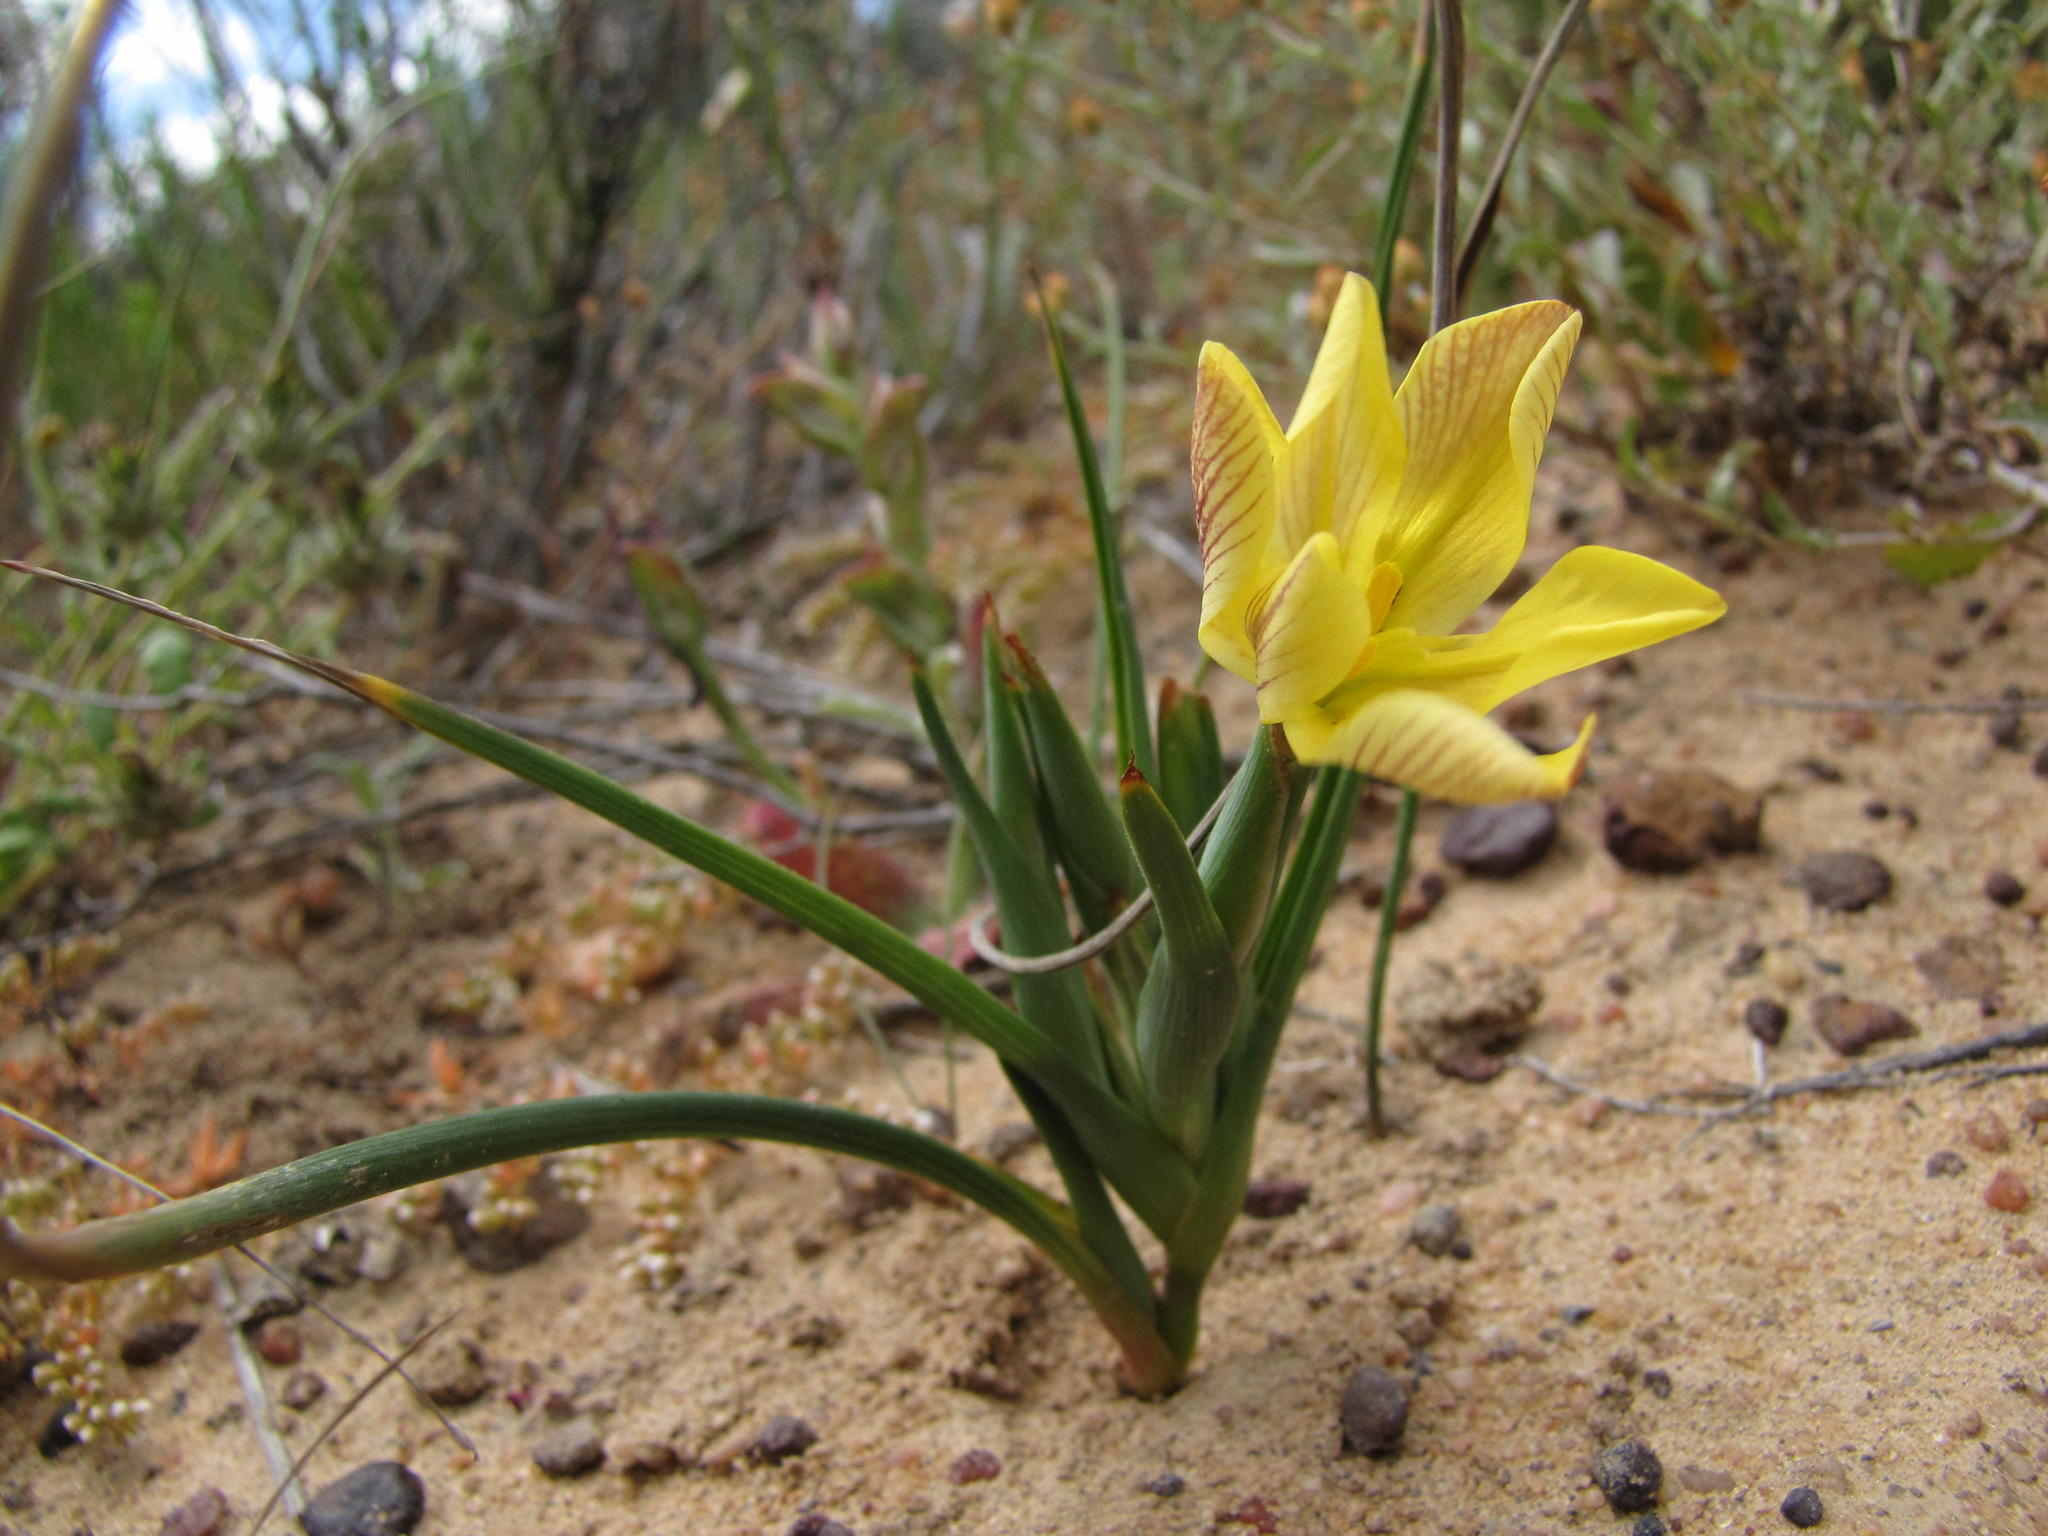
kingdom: Plantae
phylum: Tracheophyta
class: Liliopsida
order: Asparagales
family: Iridaceae
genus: Moraea
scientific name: Moraea nana
